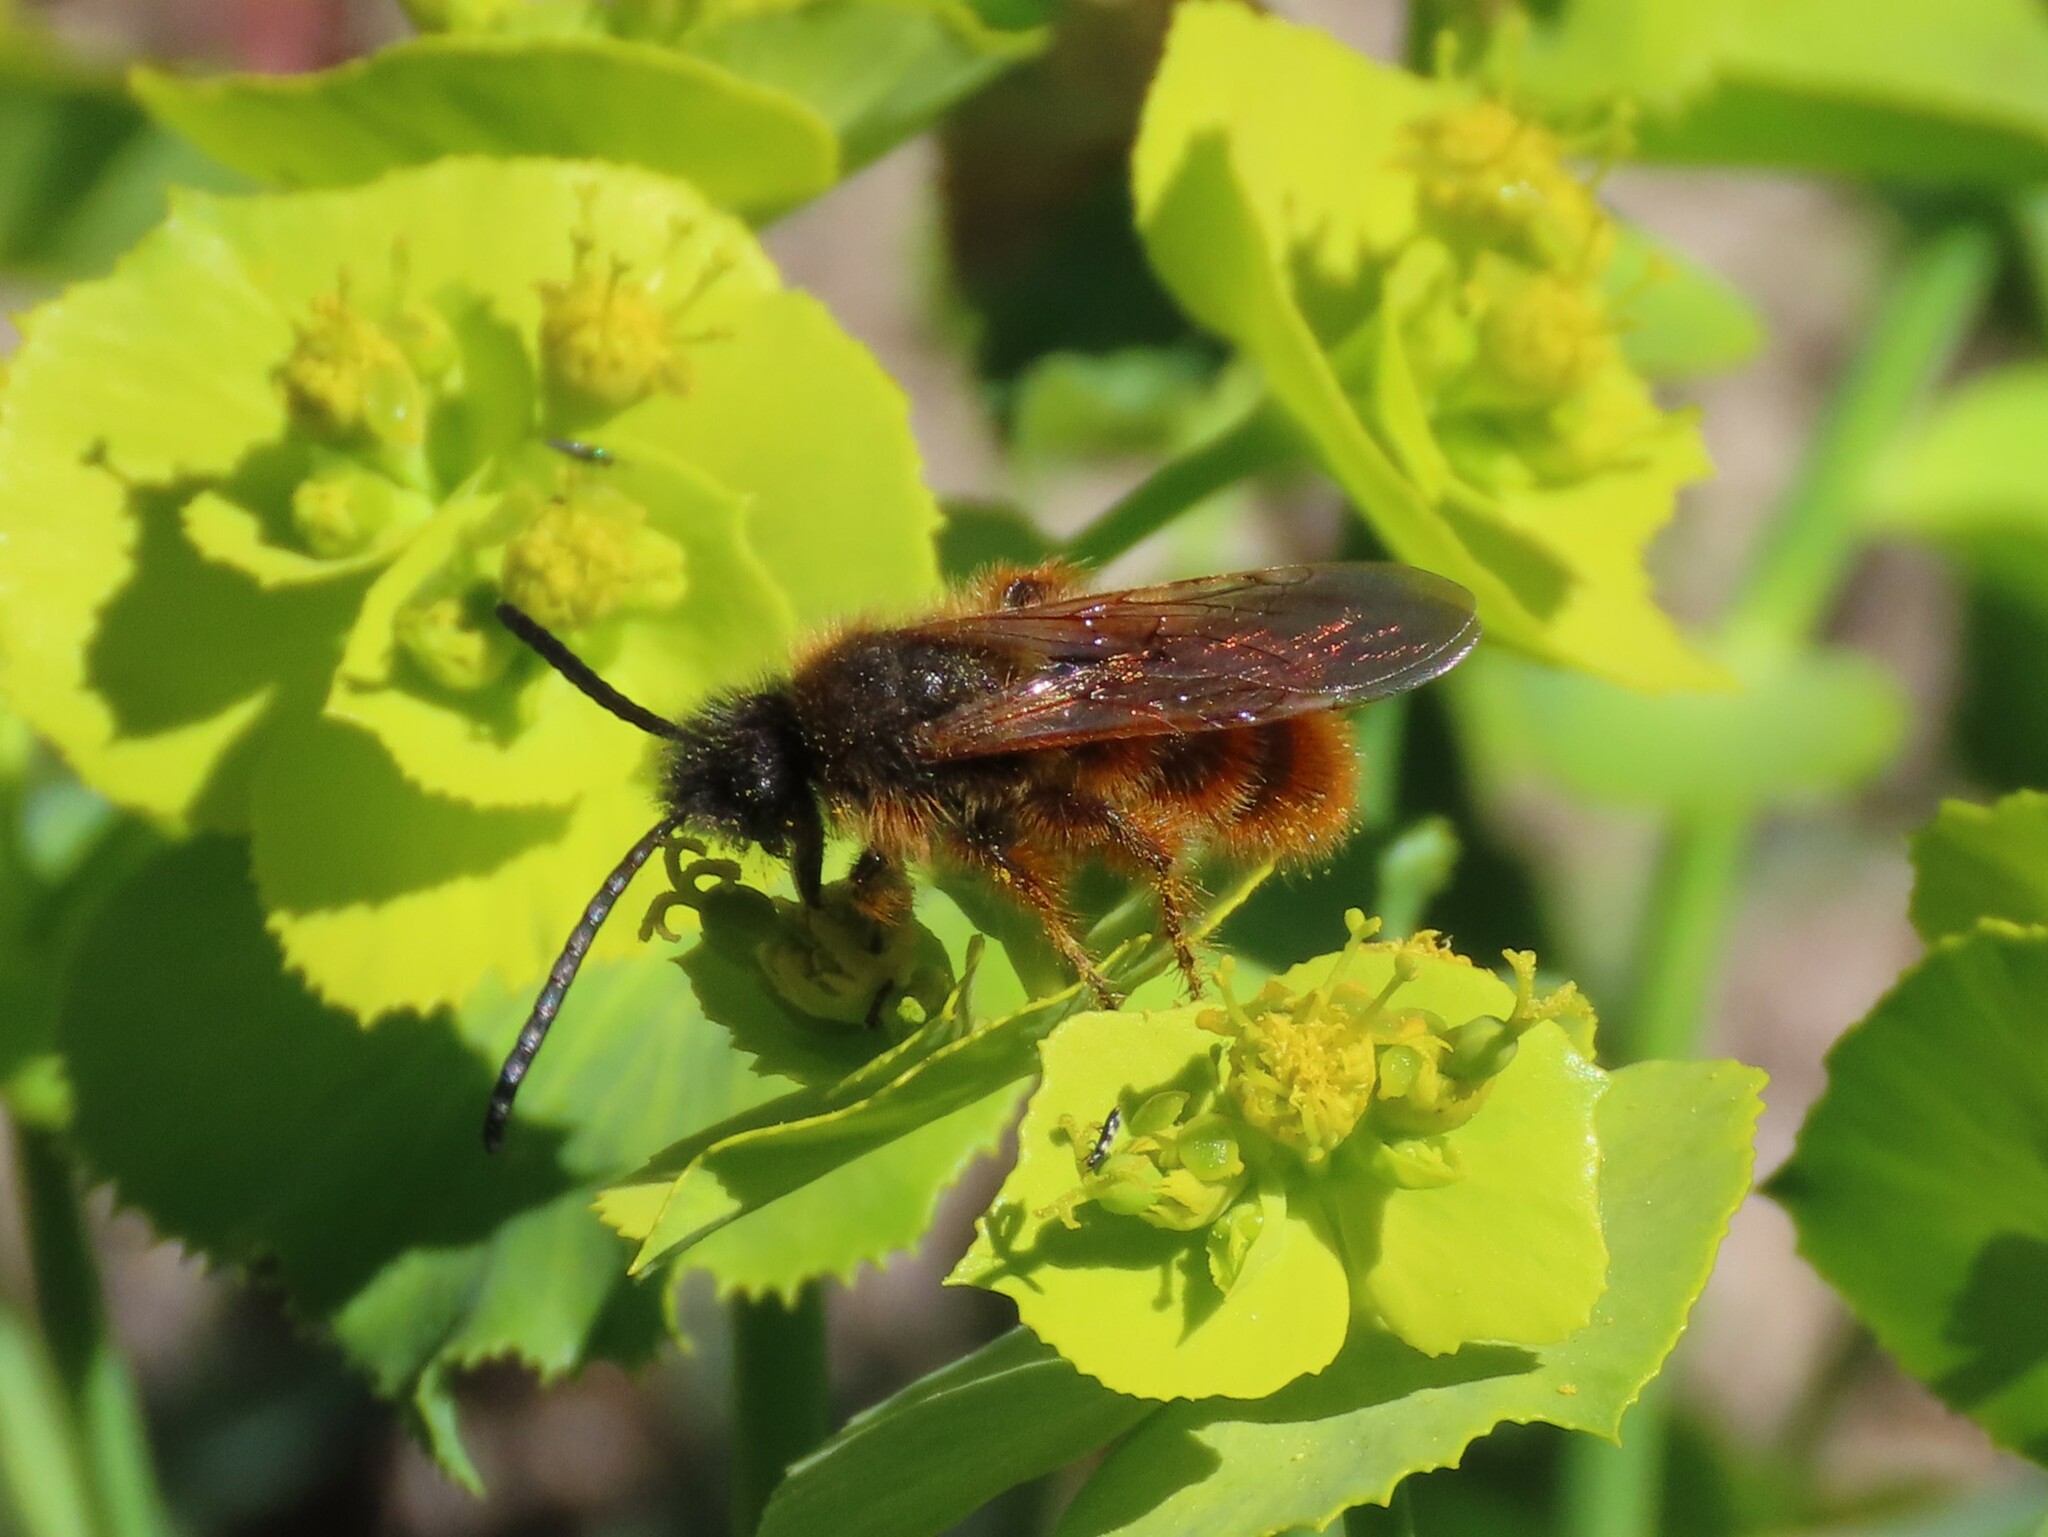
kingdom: Animalia
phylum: Arthropoda
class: Insecta
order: Hymenoptera
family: Scoliidae
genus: Dasyscolia
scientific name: Dasyscolia ciliata
